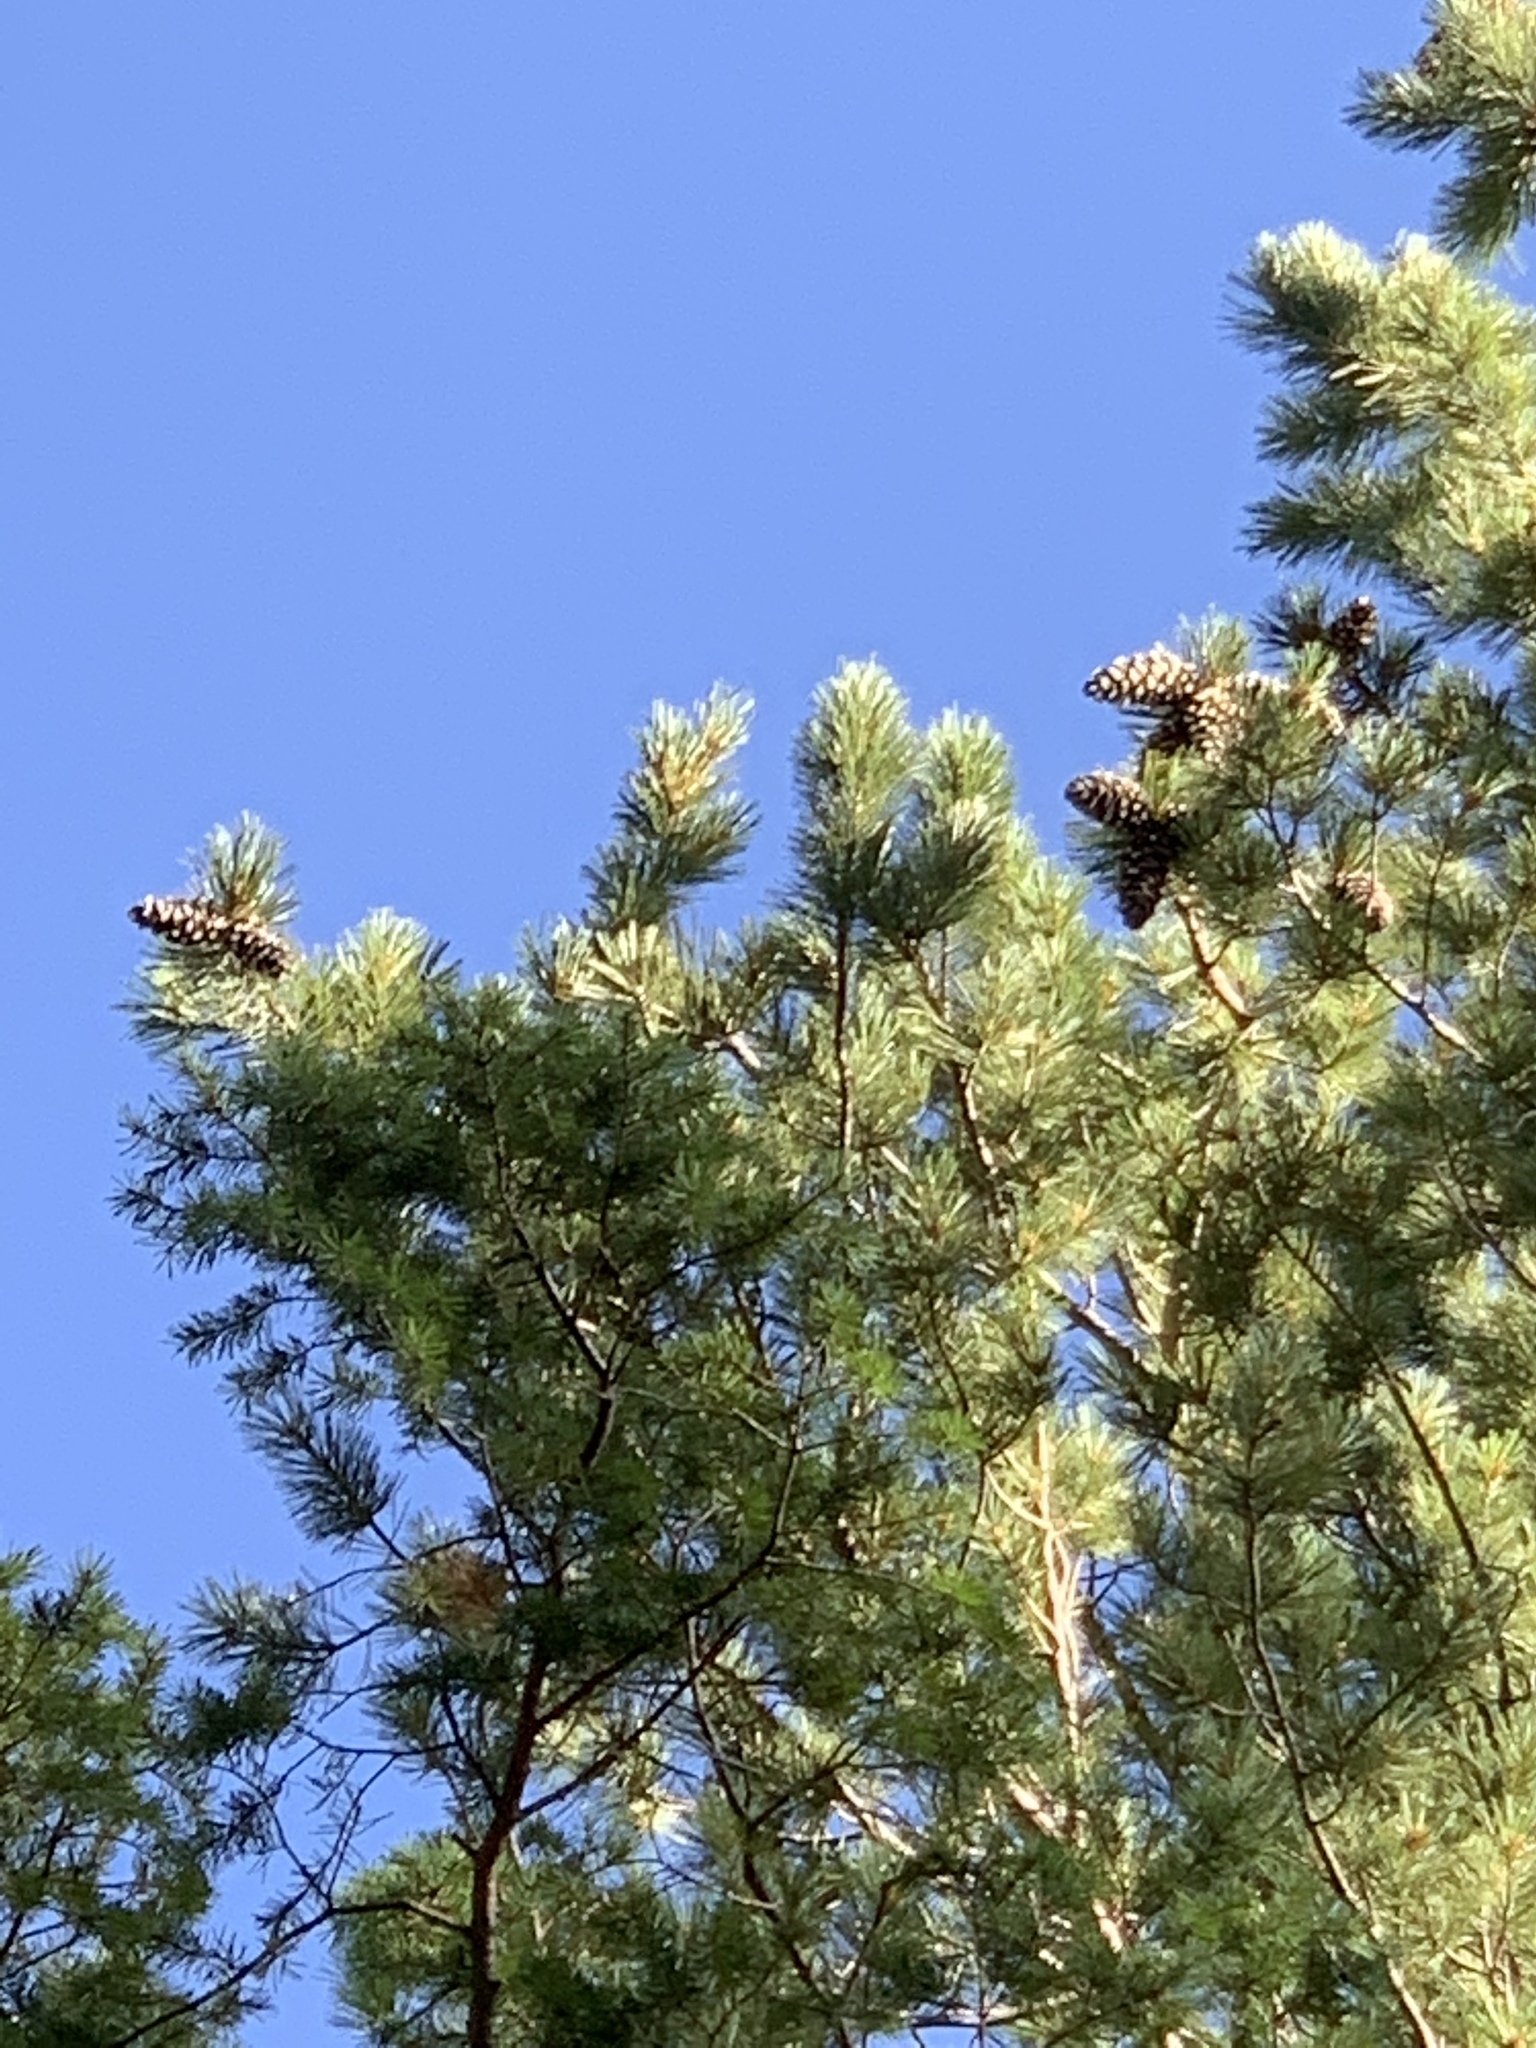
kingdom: Plantae
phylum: Tracheophyta
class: Pinopsida
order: Pinales
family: Pinaceae
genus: Pinus
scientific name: Pinus strobiformis
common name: Southwestern white pine
